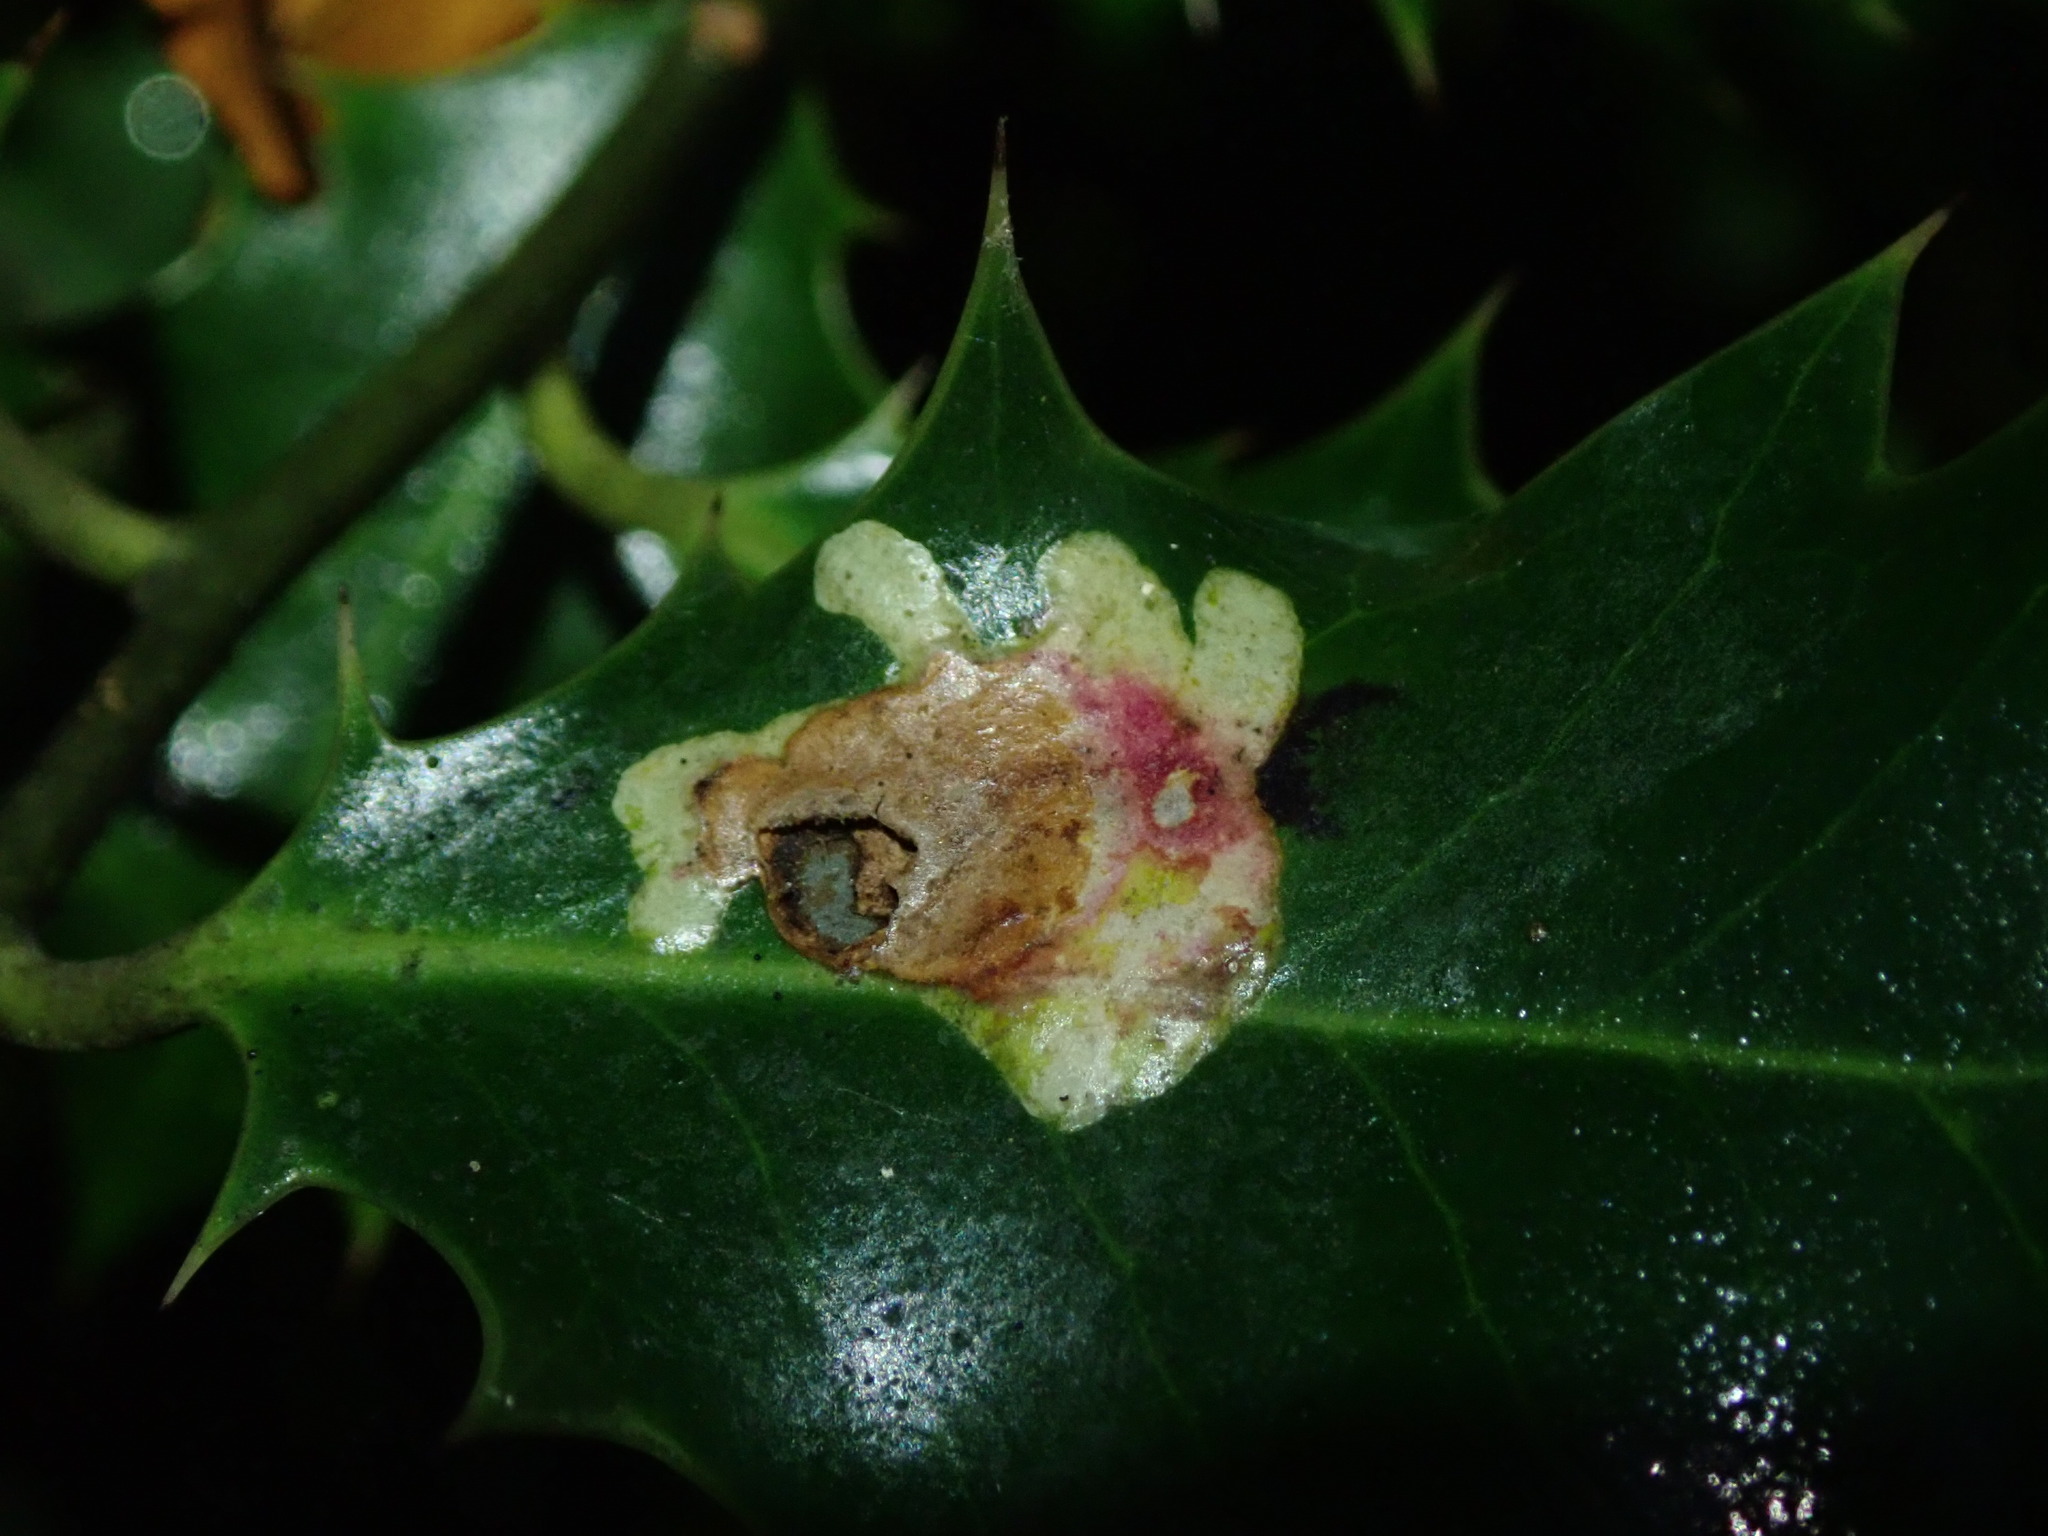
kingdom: Animalia
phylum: Arthropoda
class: Insecta
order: Diptera
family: Agromyzidae
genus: Phytomyza
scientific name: Phytomyza ilicis
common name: Holly leafminer
